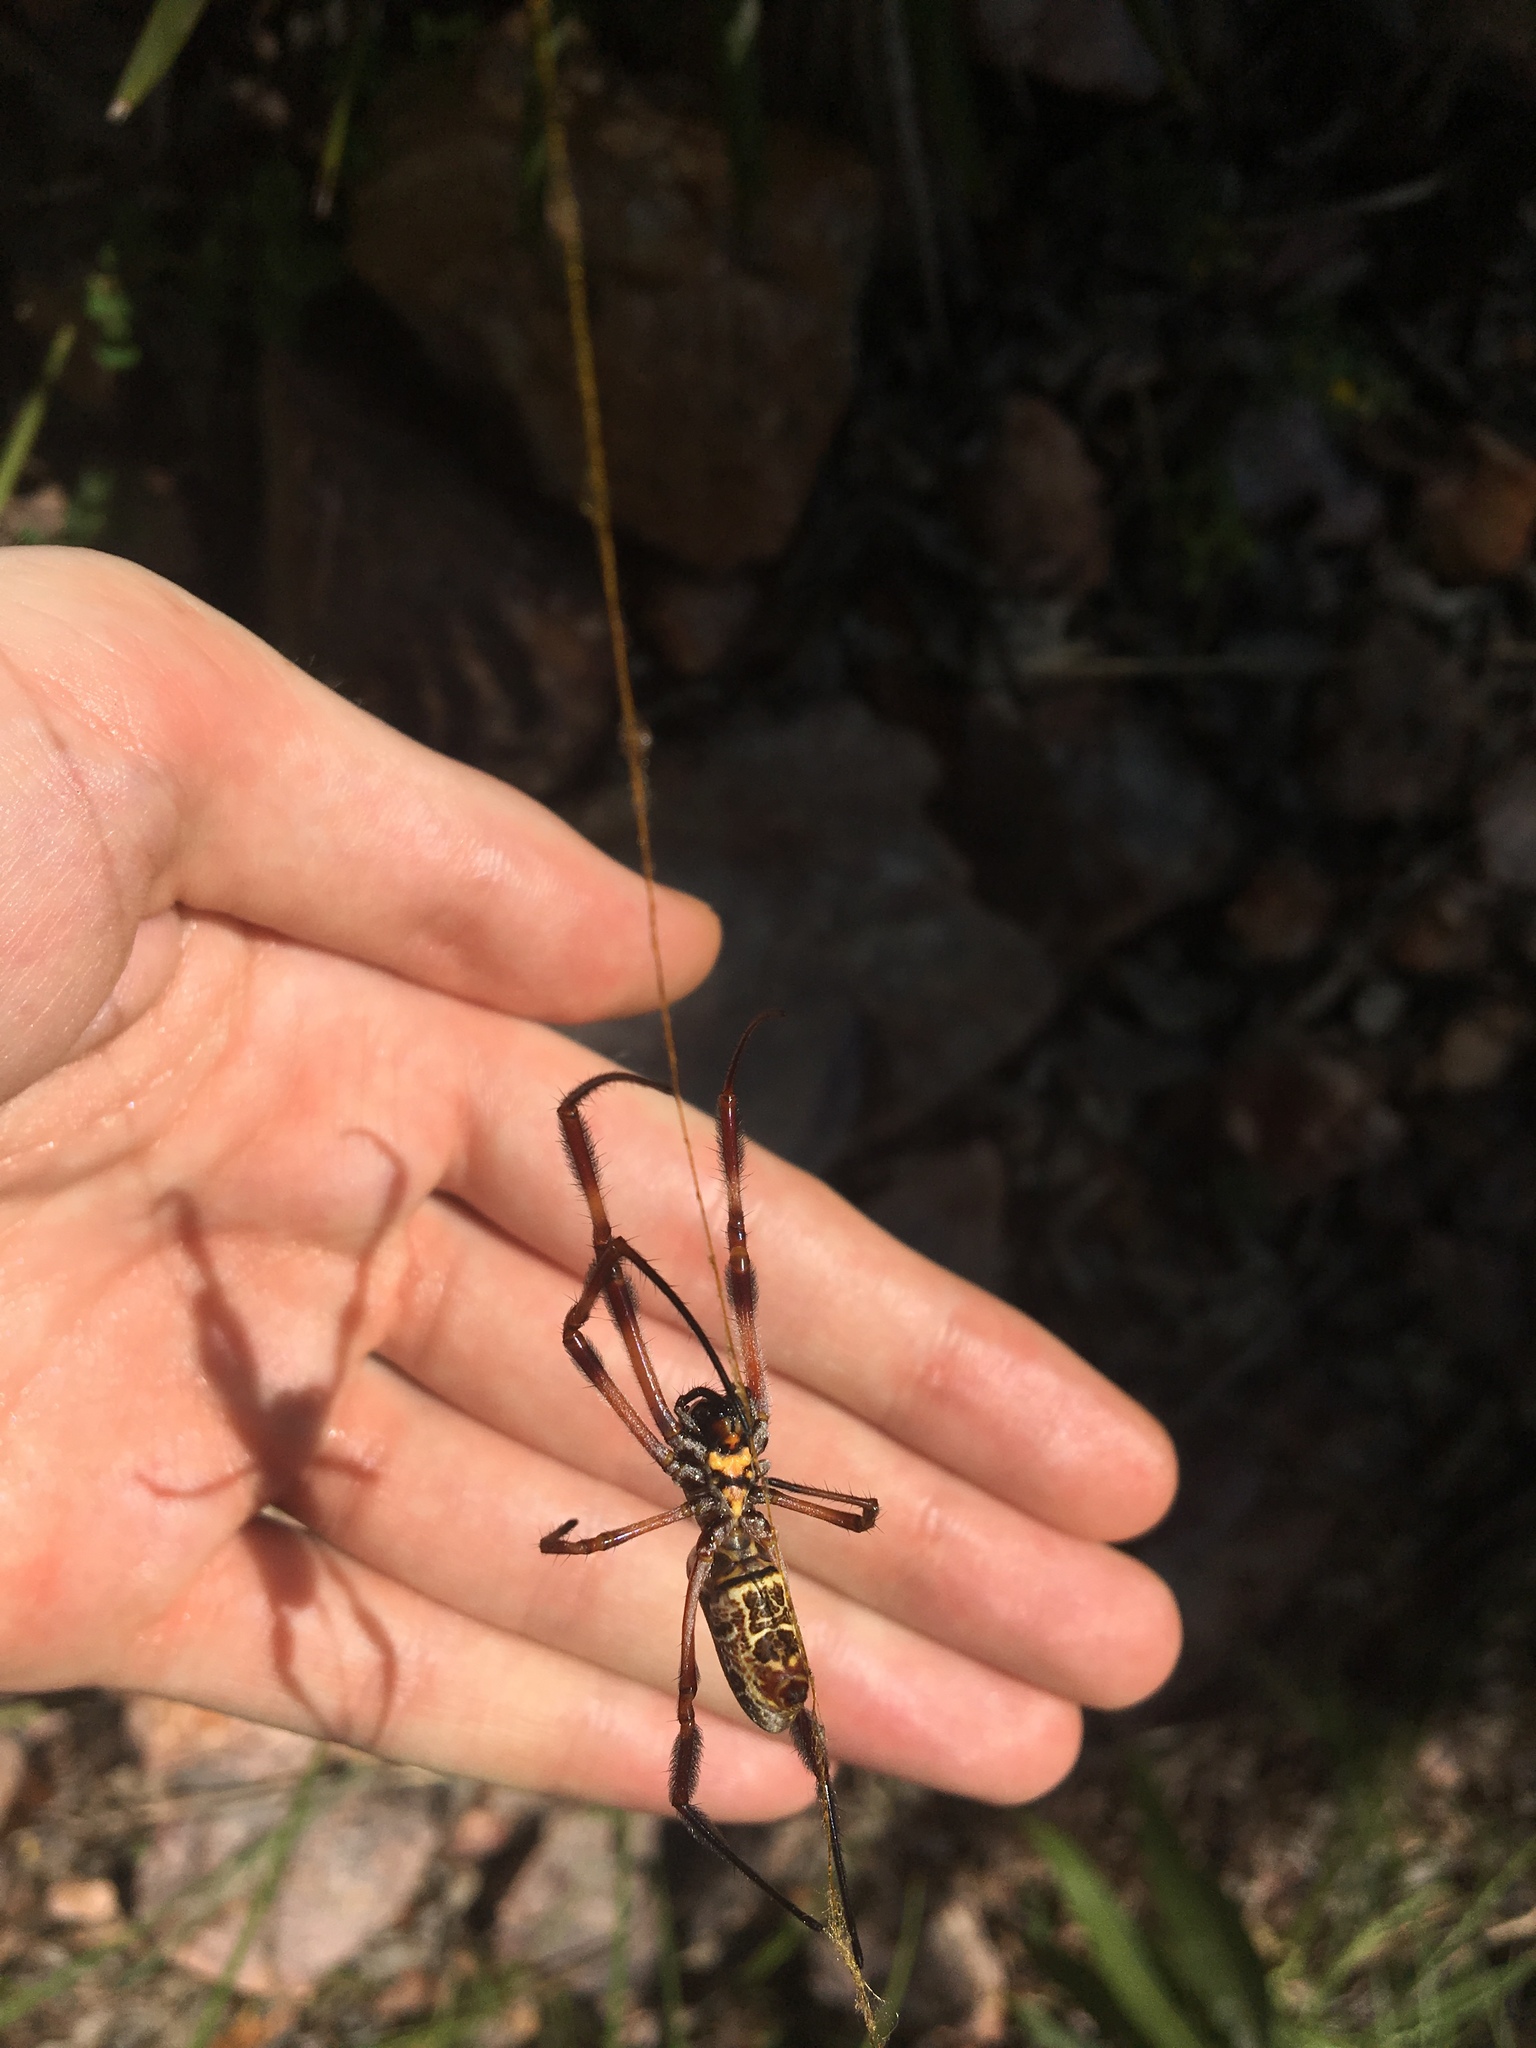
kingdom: Animalia
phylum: Arthropoda
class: Arachnida
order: Araneae
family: Araneidae
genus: Trichonephila
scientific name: Trichonephila edulis
